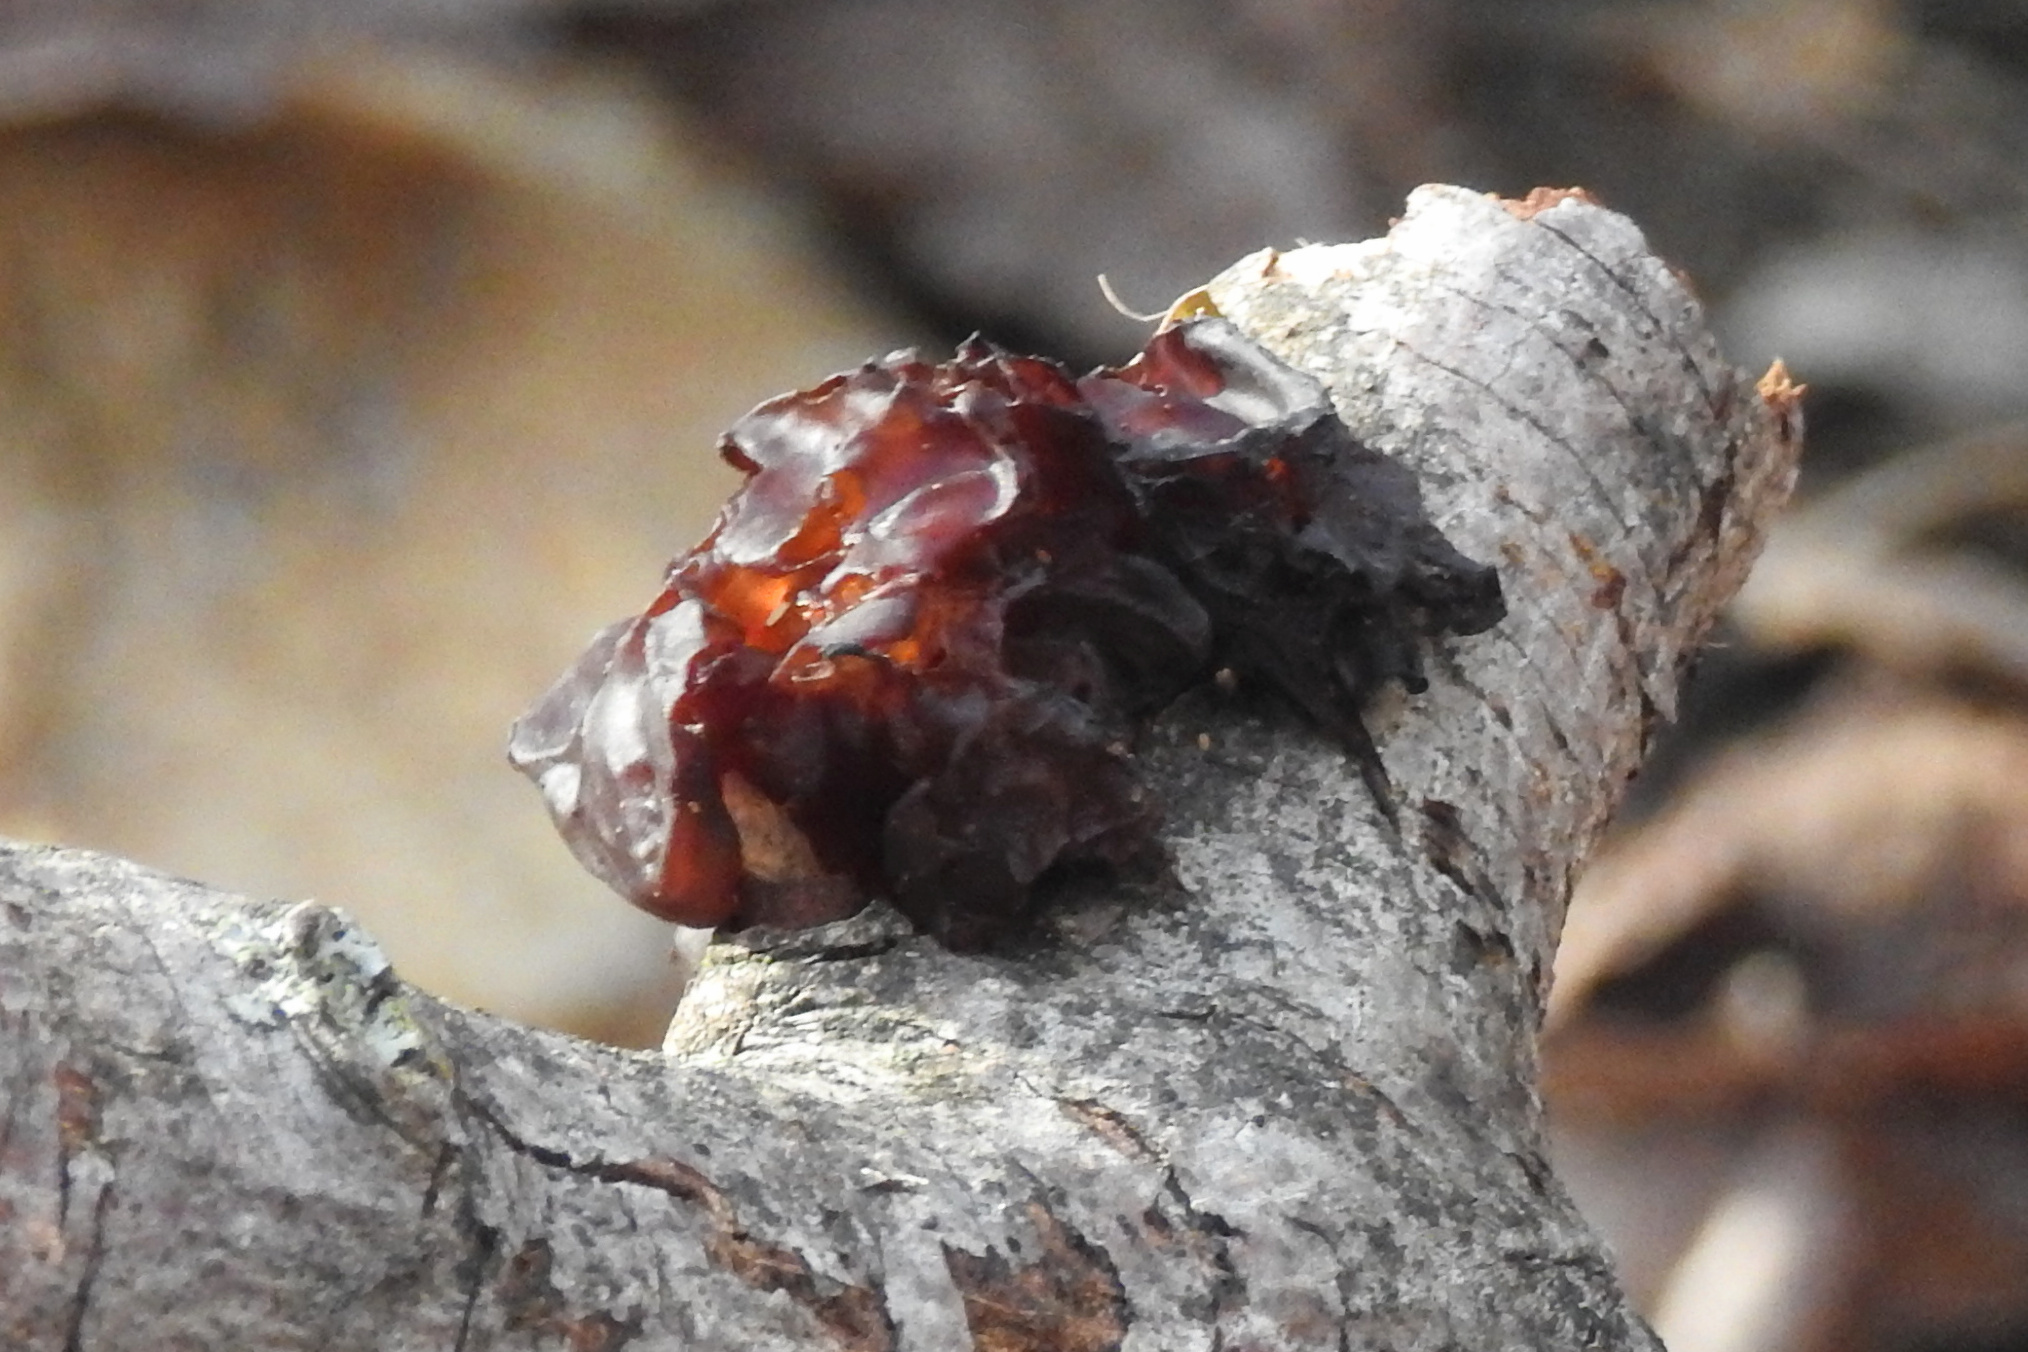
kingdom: Fungi
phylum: Basidiomycota
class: Agaricomycetes
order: Auriculariales
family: Auriculariaceae
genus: Exidia
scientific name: Exidia
